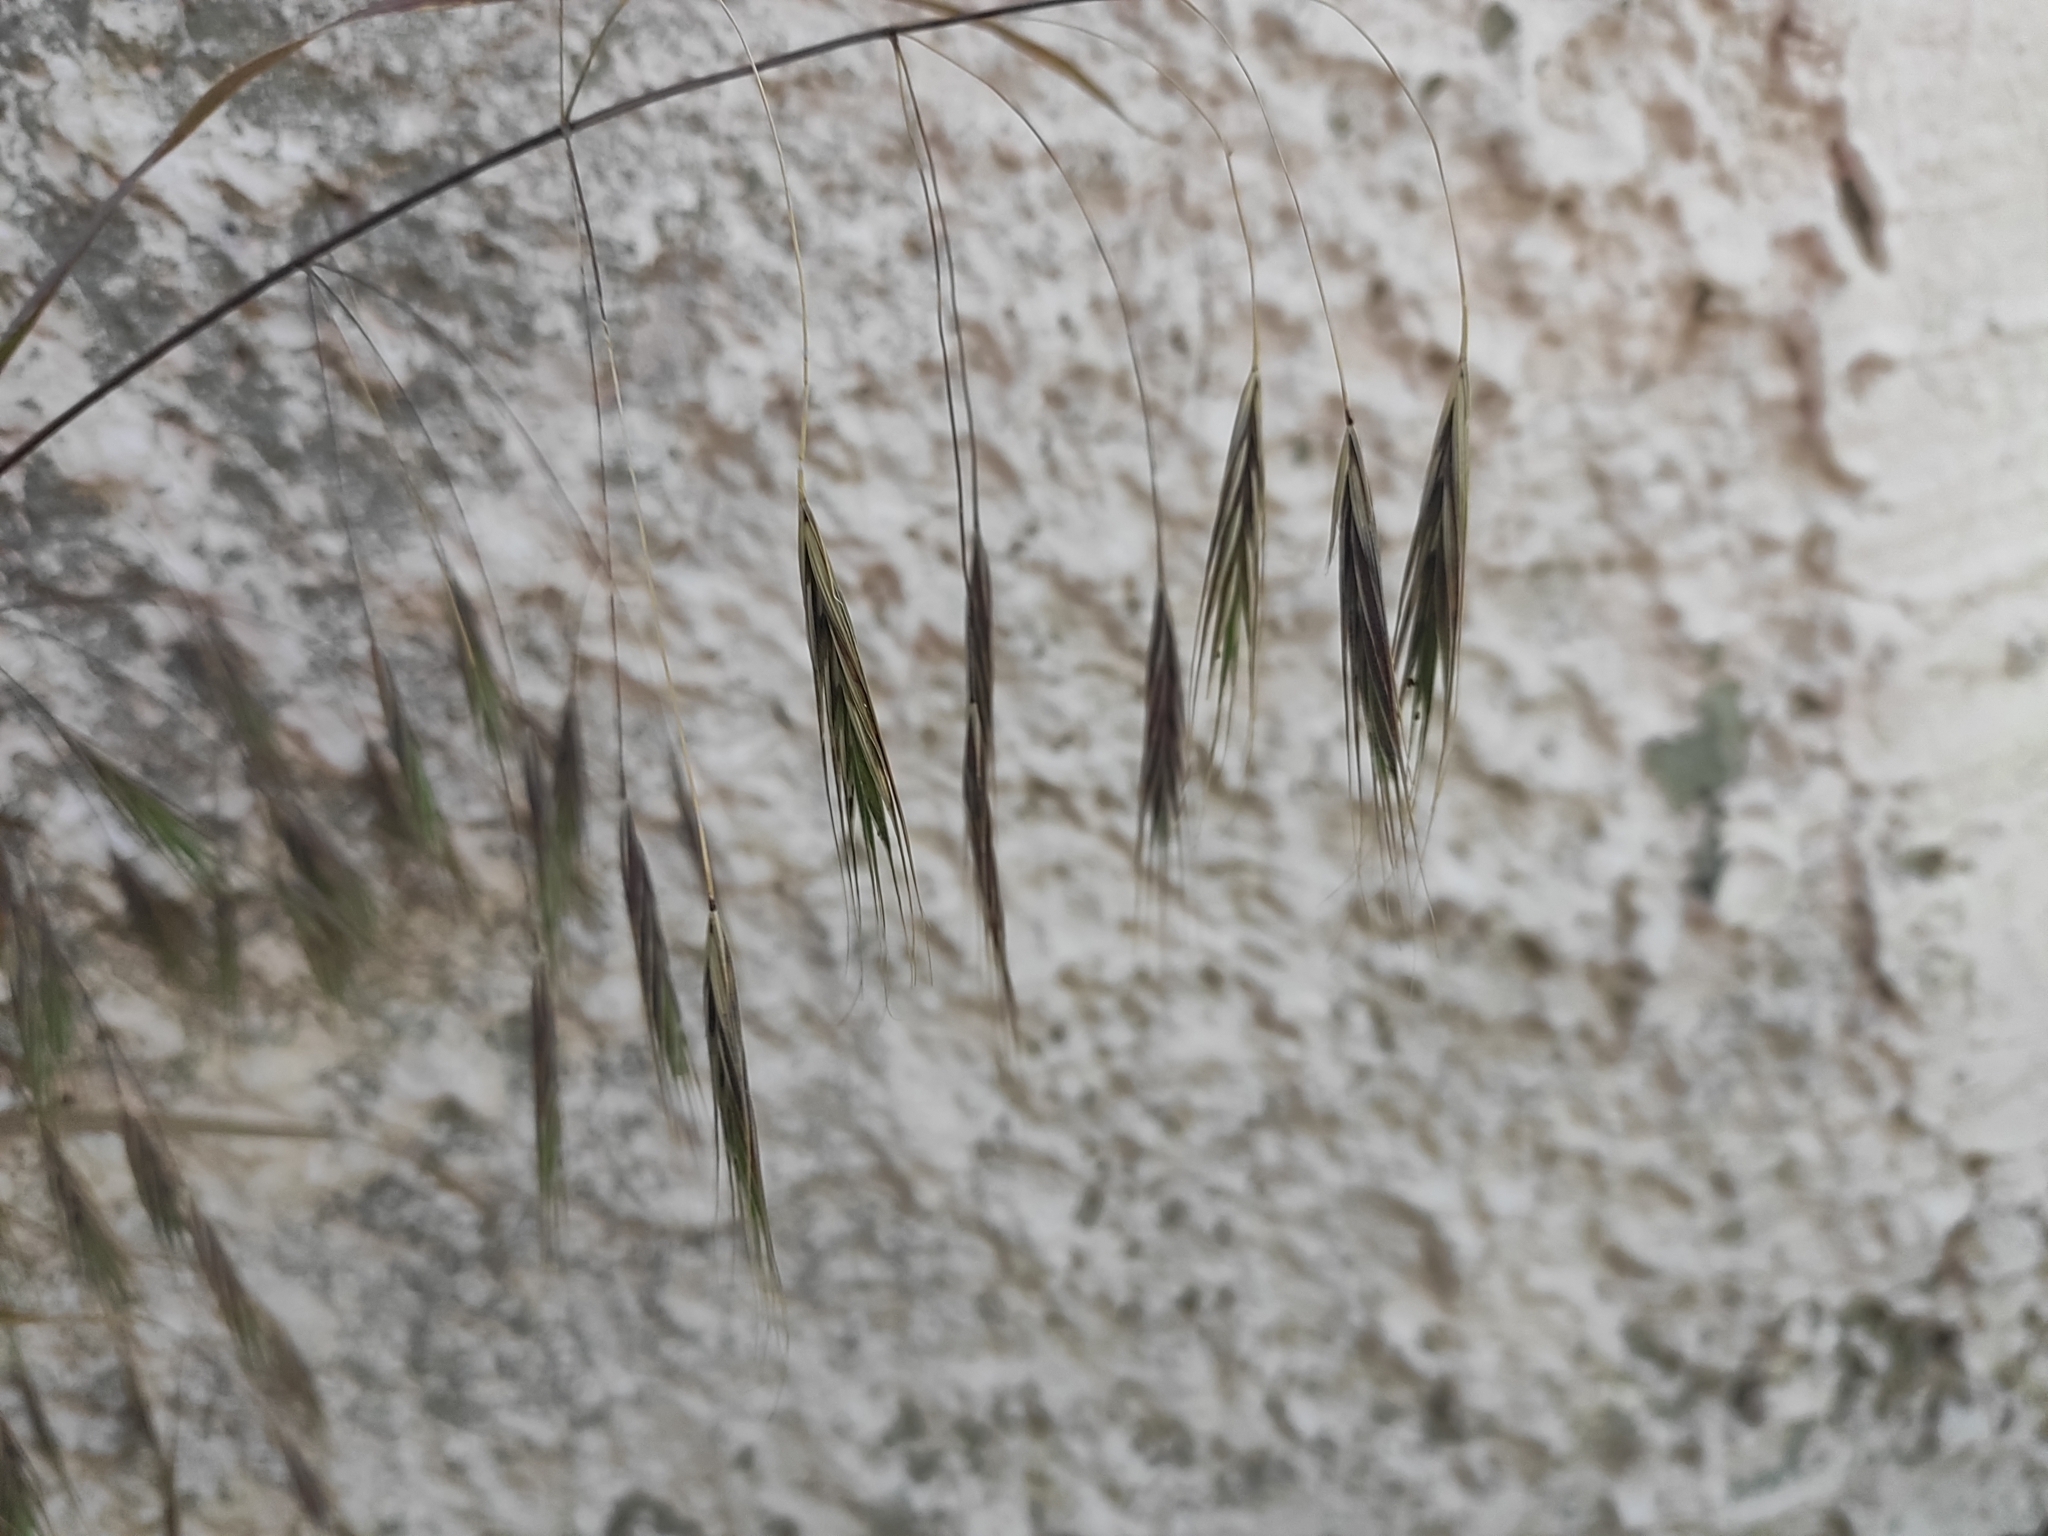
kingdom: Plantae
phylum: Tracheophyta
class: Liliopsida
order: Poales
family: Poaceae
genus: Bromus
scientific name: Bromus sterilis
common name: Poverty brome
